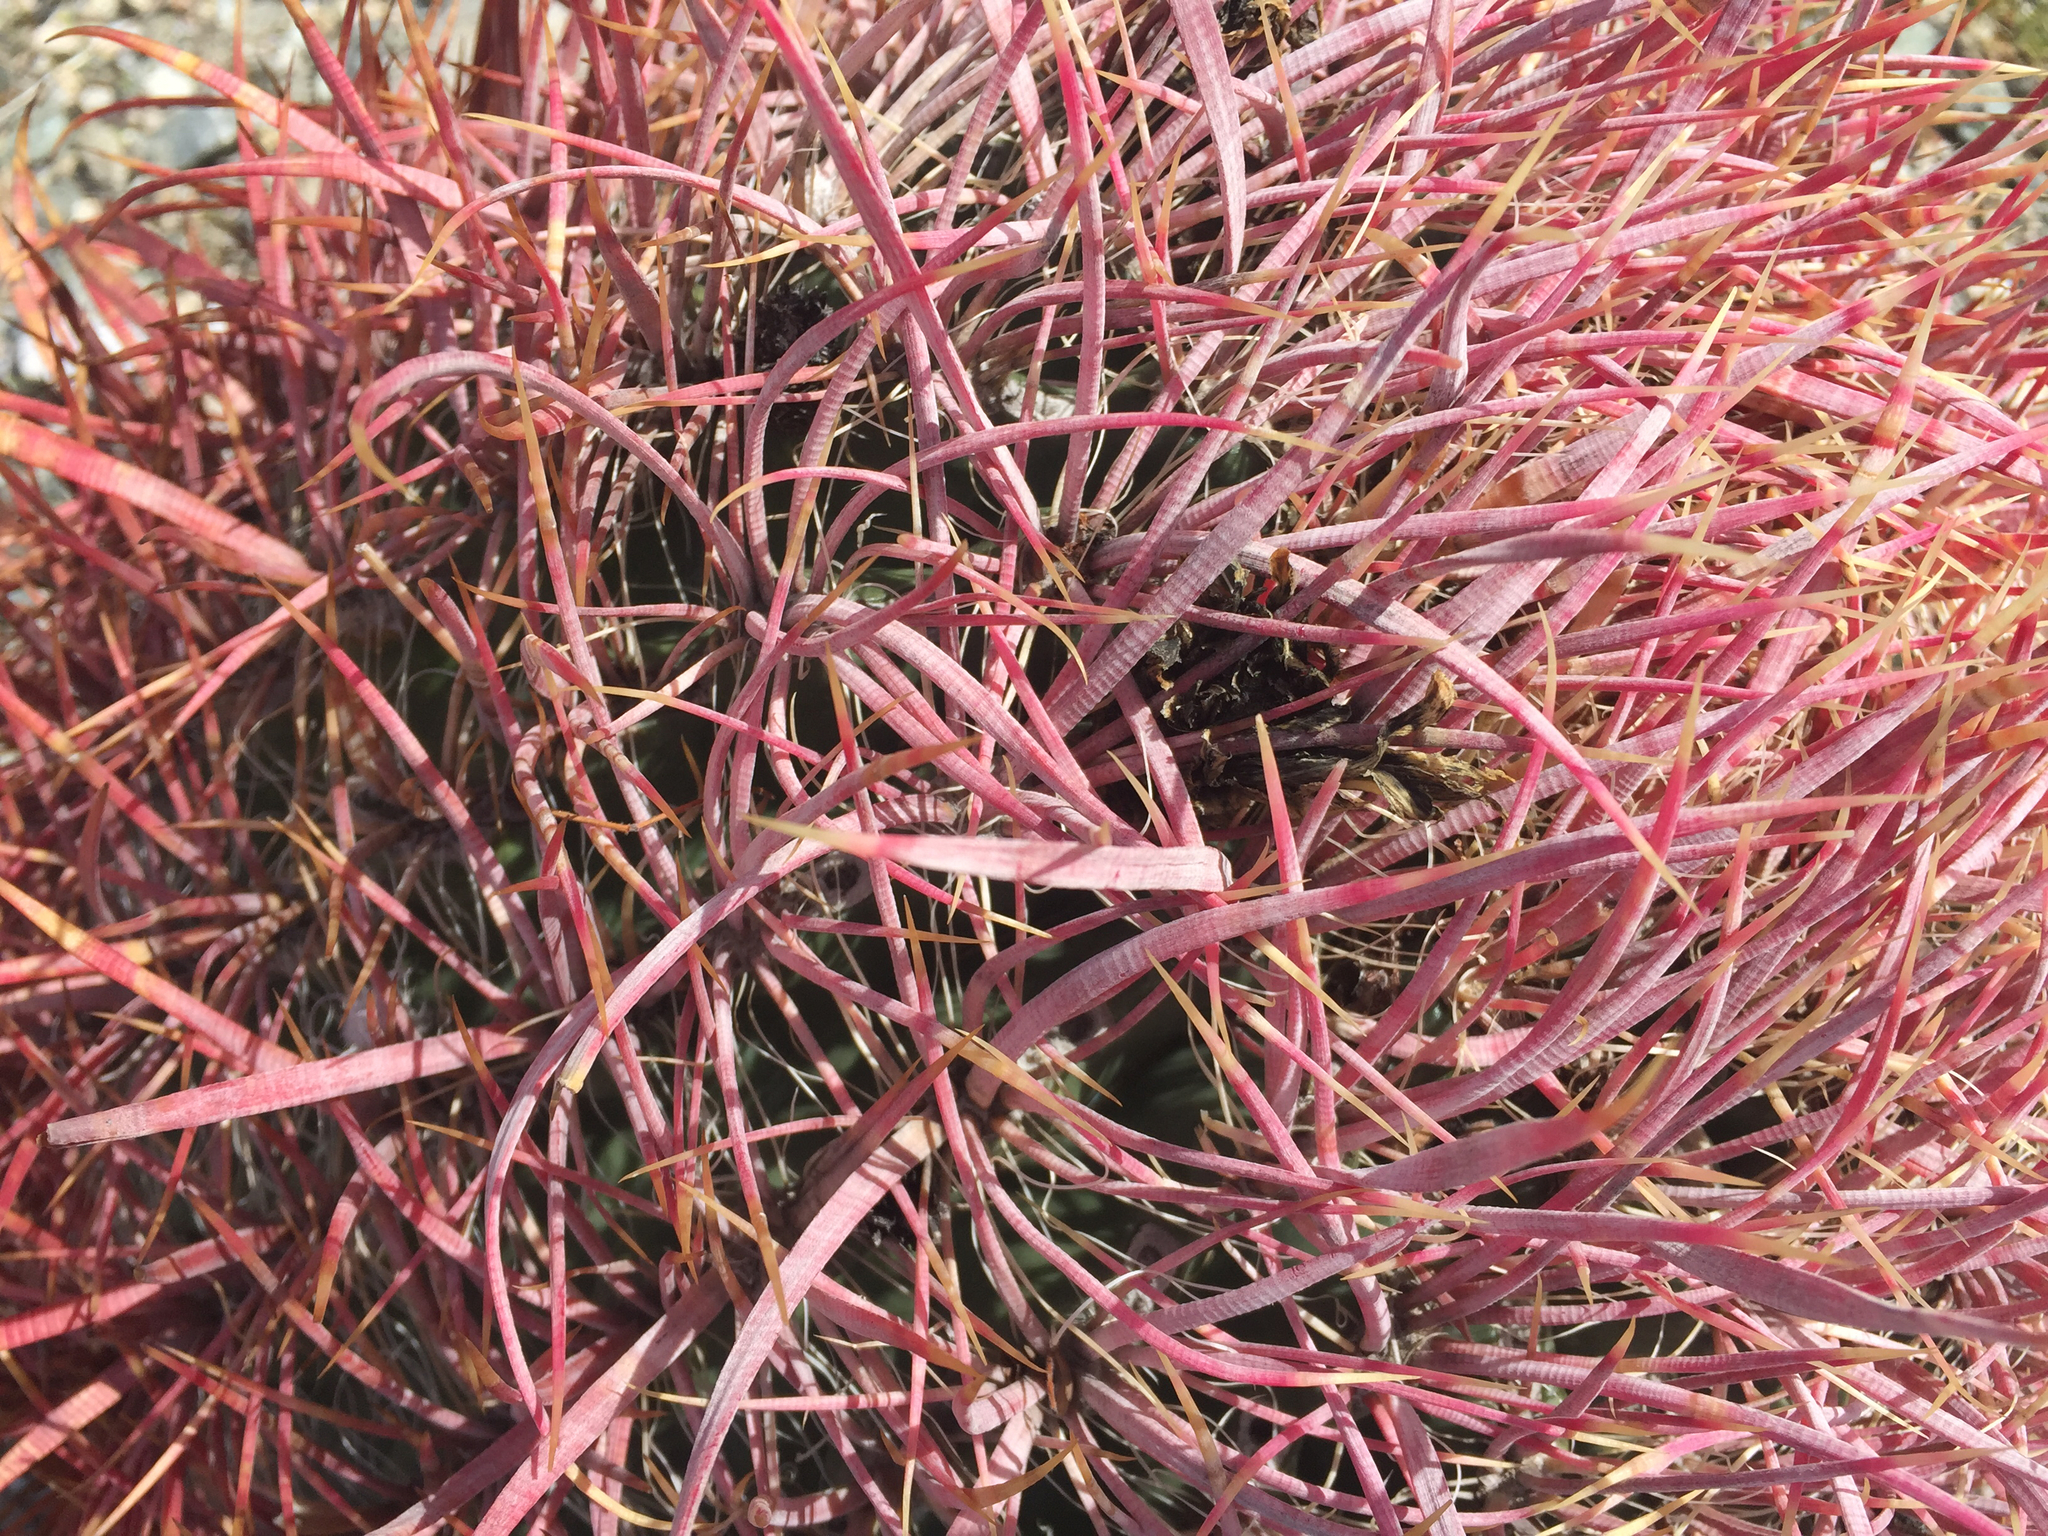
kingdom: Plantae
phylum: Tracheophyta
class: Magnoliopsida
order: Caryophyllales
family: Cactaceae
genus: Ferocactus
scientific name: Ferocactus cylindraceus
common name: California barrel cactus
